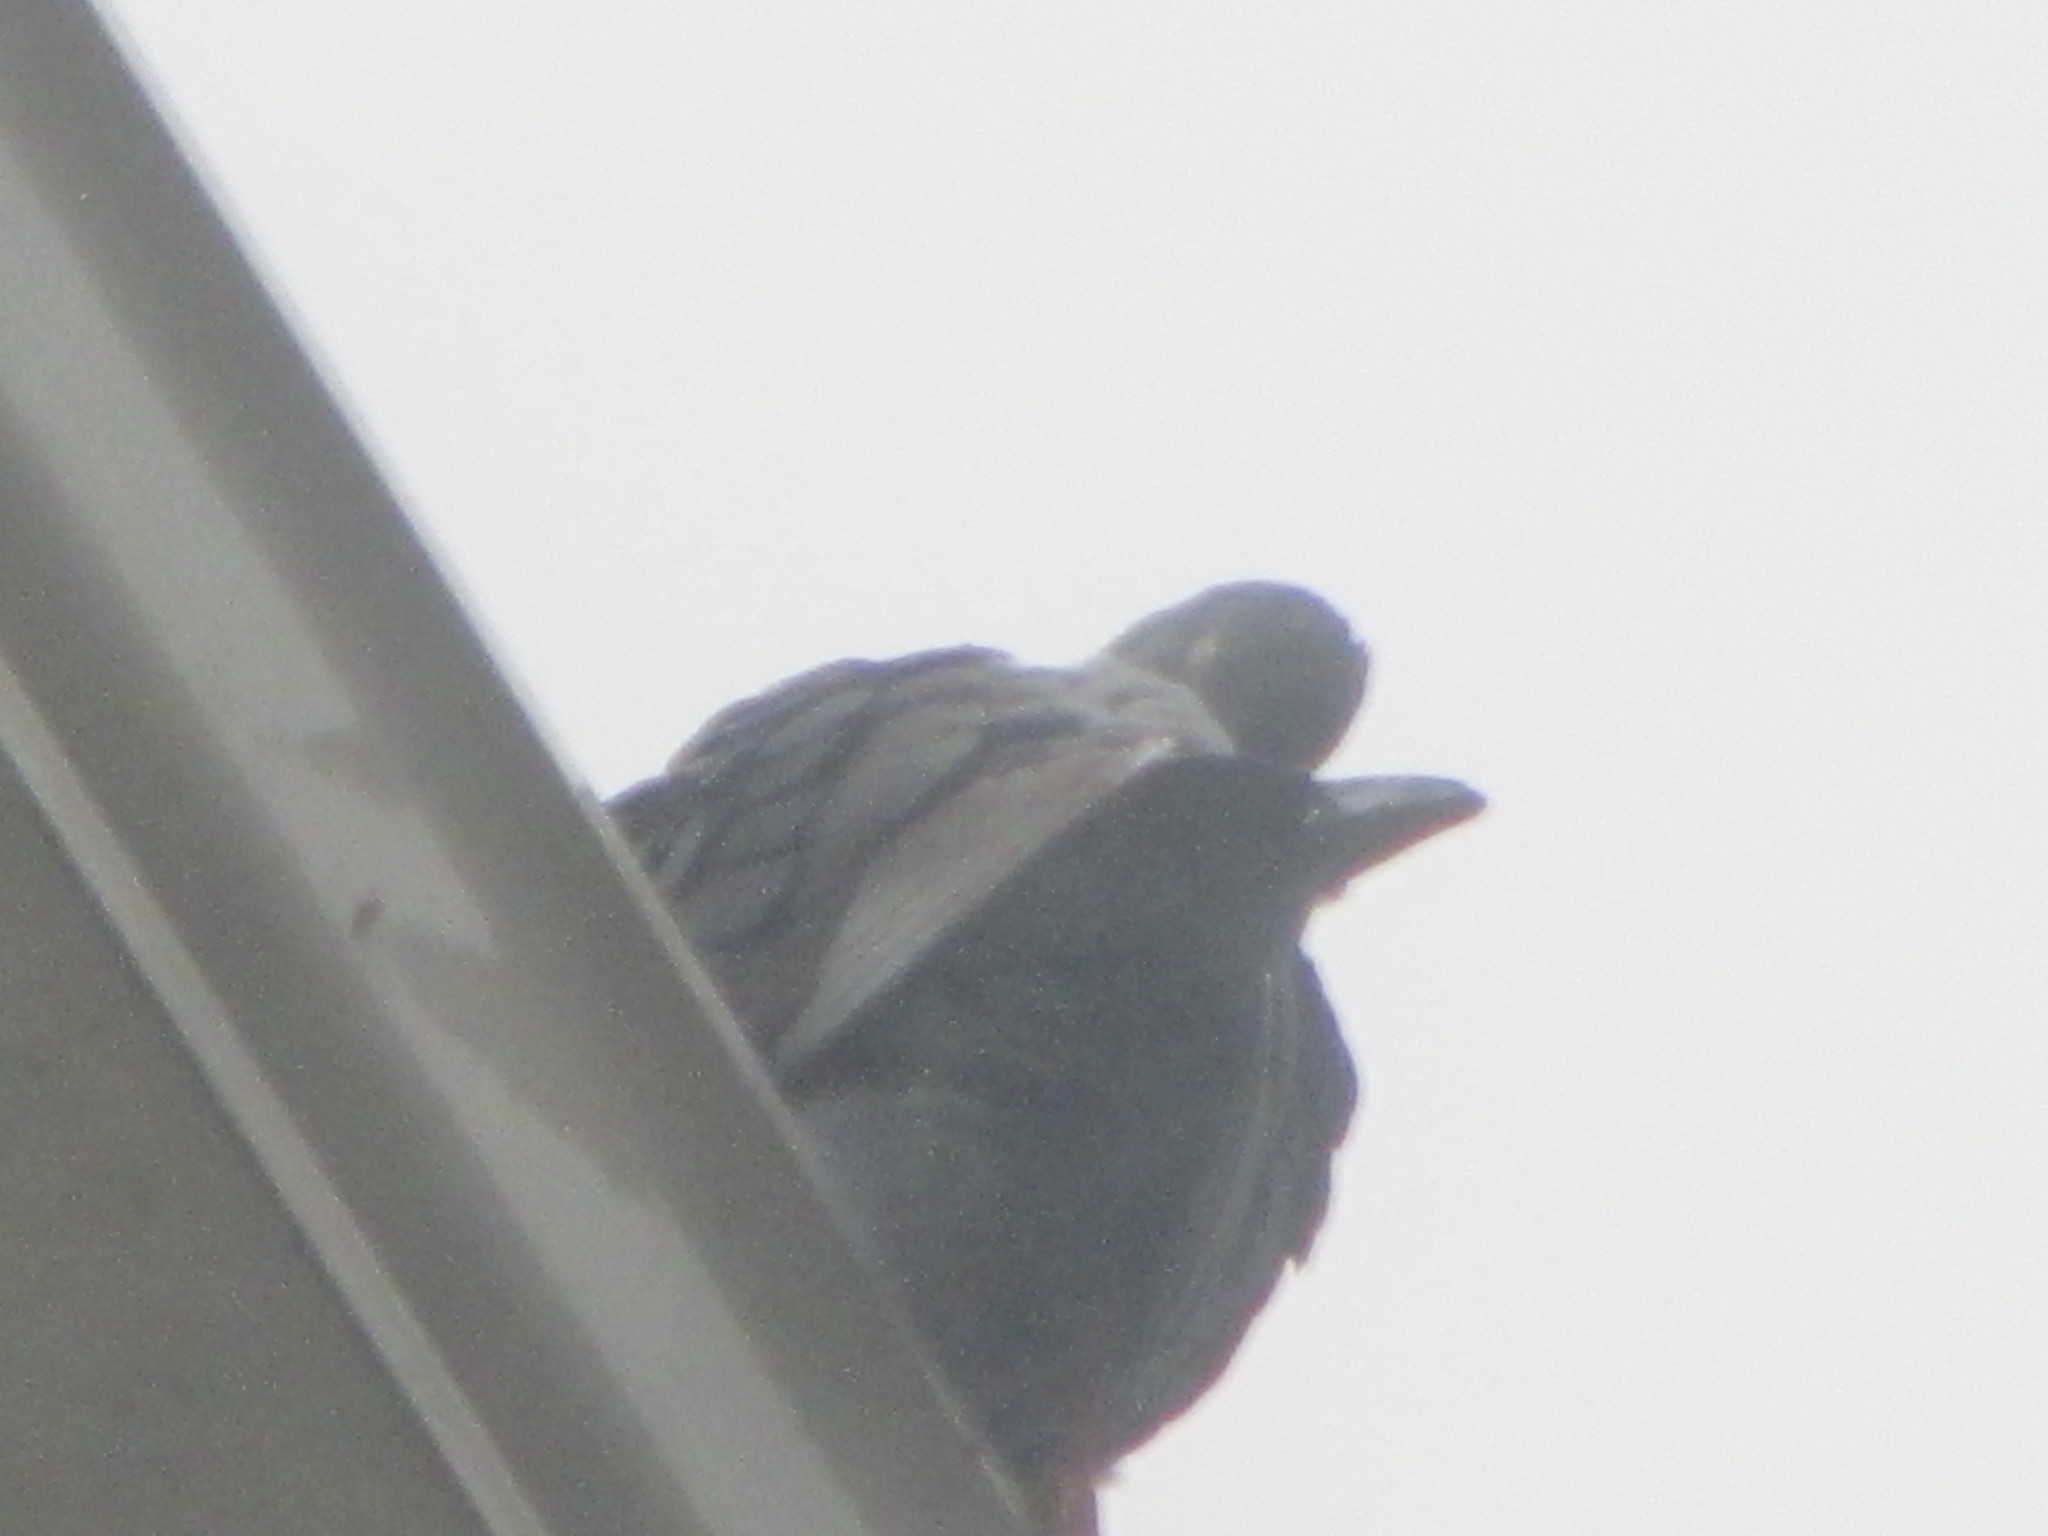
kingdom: Animalia
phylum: Chordata
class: Aves
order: Columbiformes
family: Columbidae
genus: Columba
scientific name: Columba livia
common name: Rock pigeon
